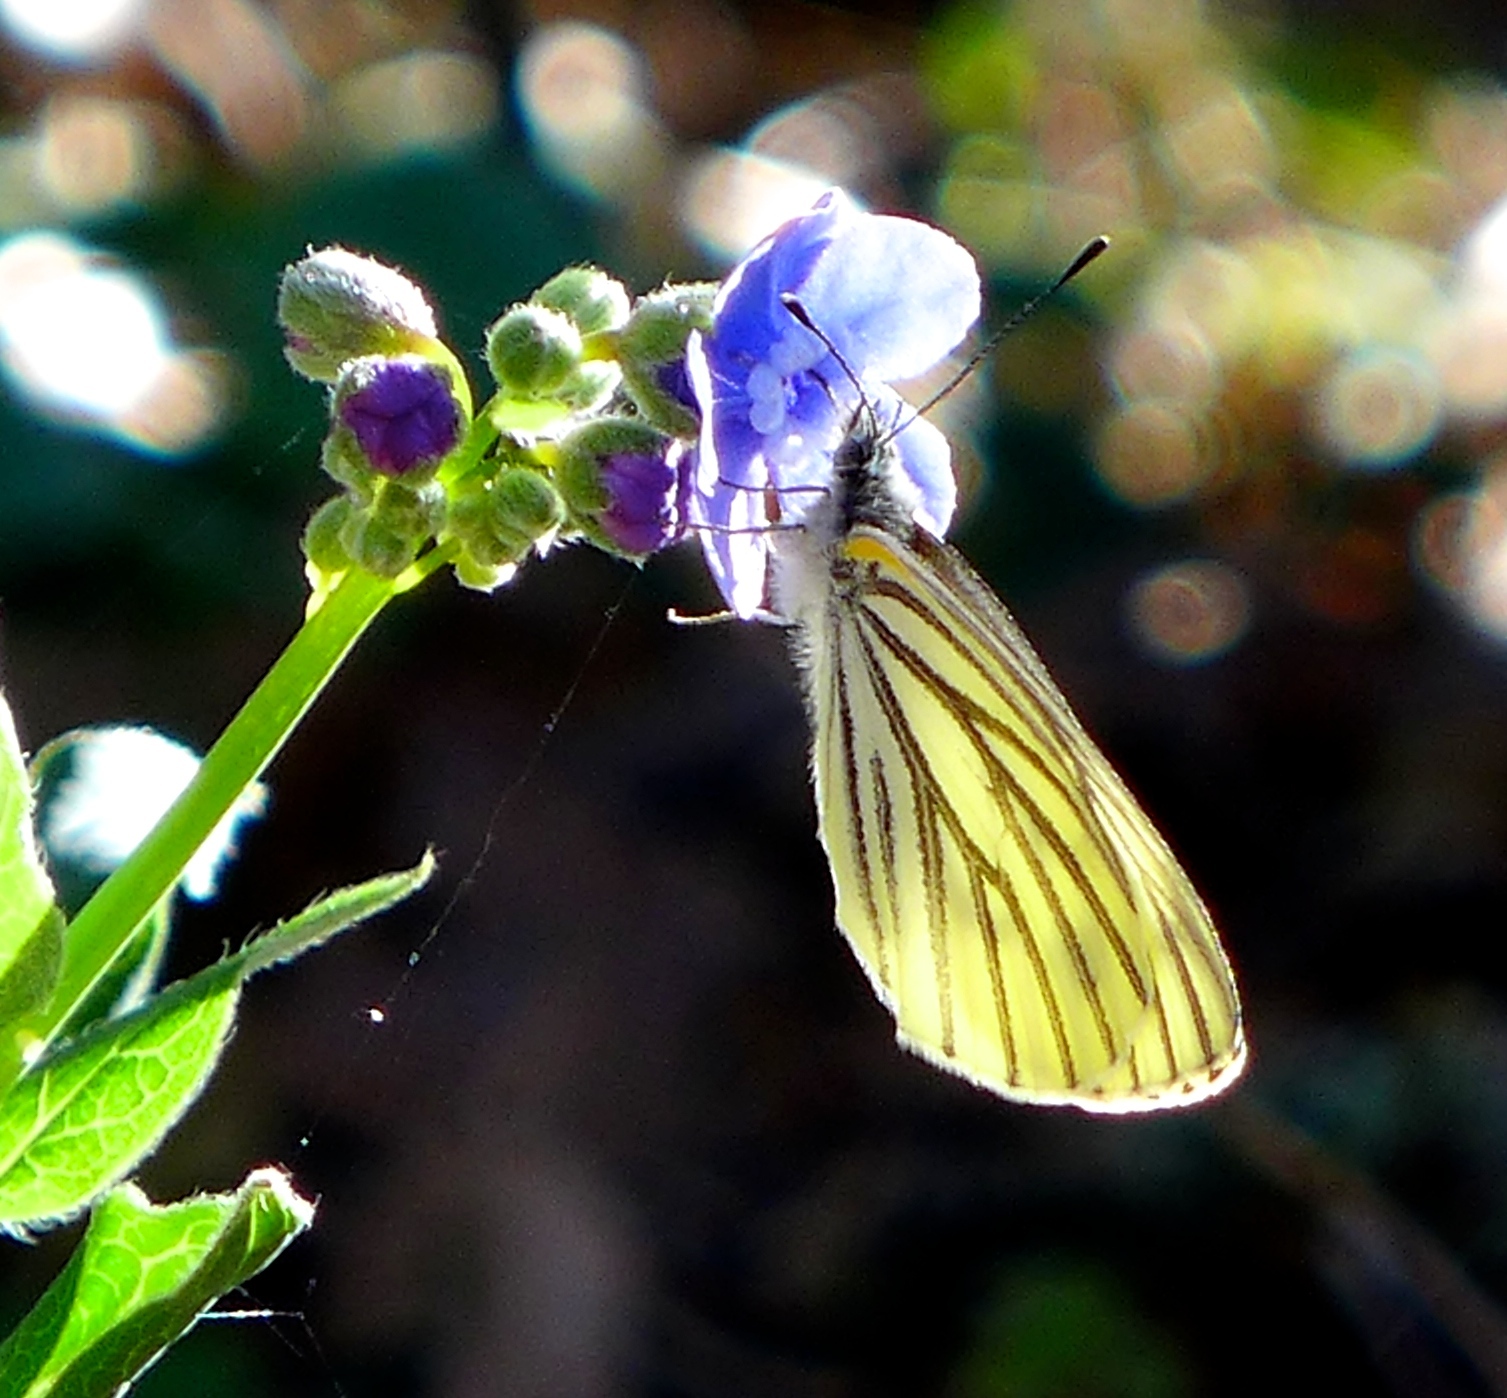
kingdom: Animalia
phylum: Arthropoda
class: Insecta
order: Lepidoptera
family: Pieridae
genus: Pieris
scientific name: Pieris marginalis
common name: Margined white
